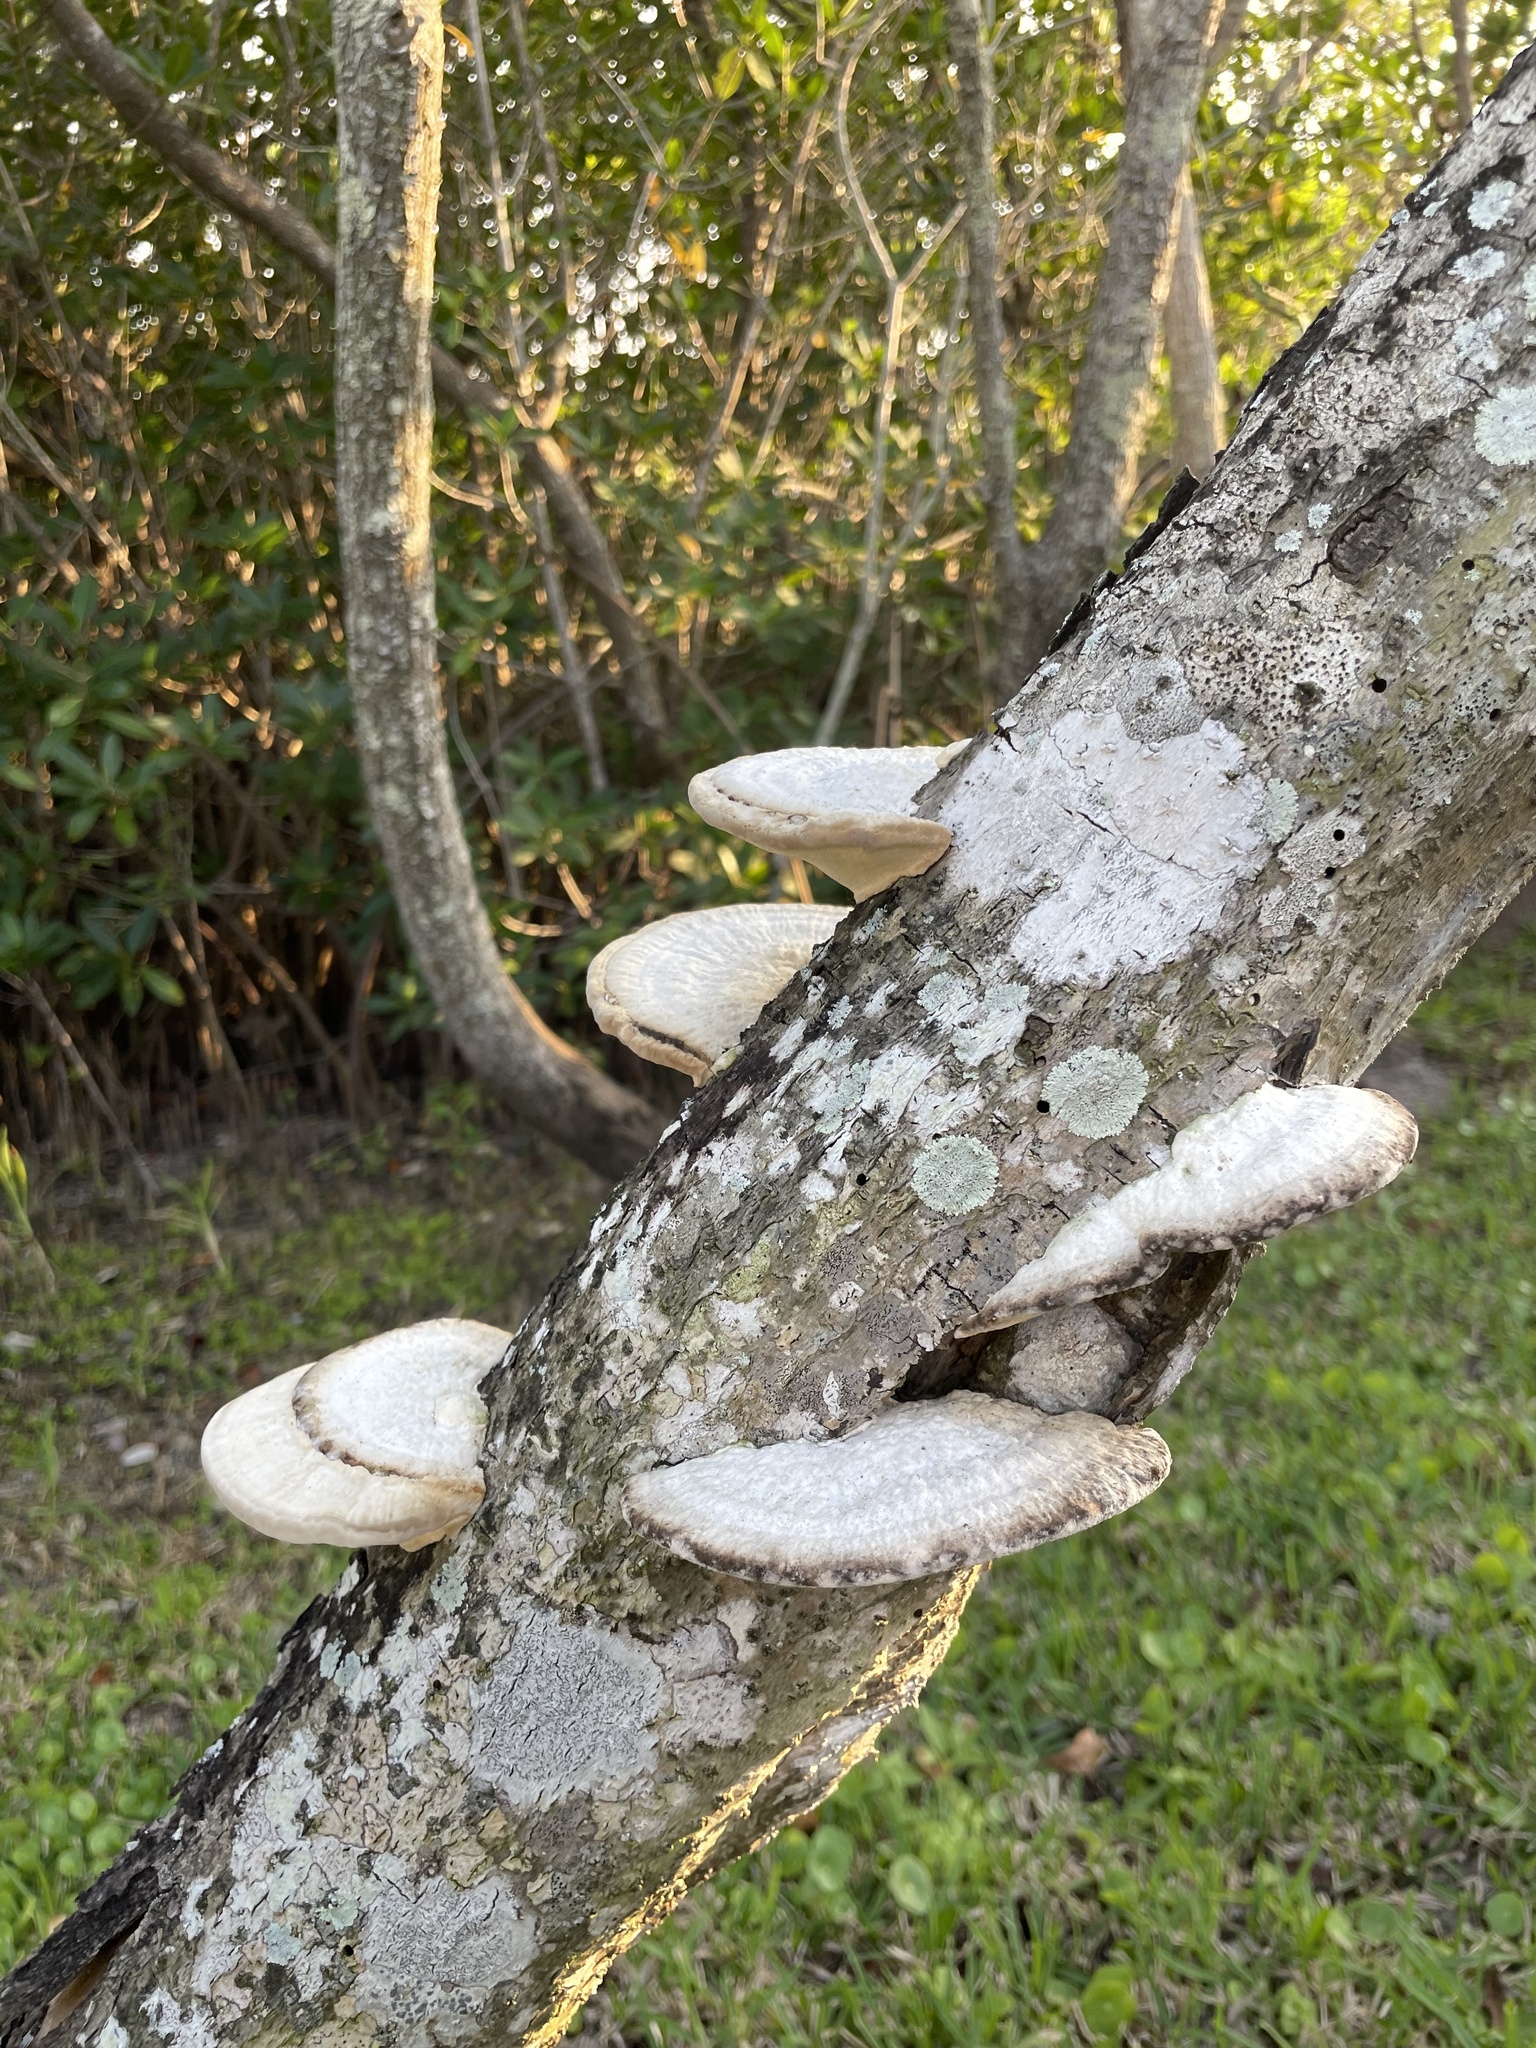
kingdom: Fungi
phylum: Basidiomycota
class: Agaricomycetes
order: Polyporales
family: Polyporaceae
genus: Trametes
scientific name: Trametes lactinea
